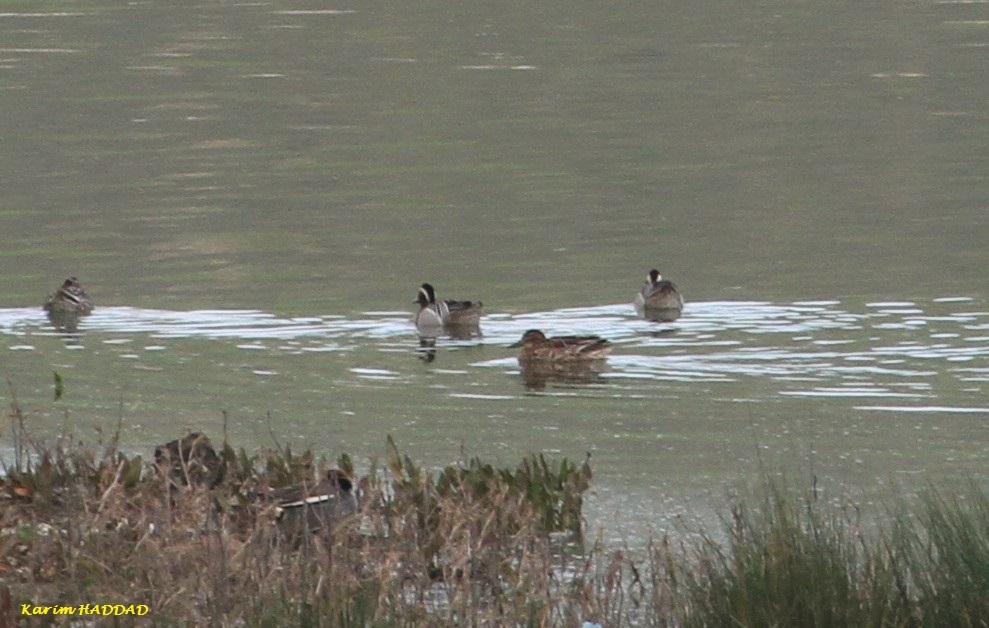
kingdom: Animalia
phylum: Chordata
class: Aves
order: Anseriformes
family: Anatidae
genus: Spatula
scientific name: Spatula querquedula
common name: Garganey
